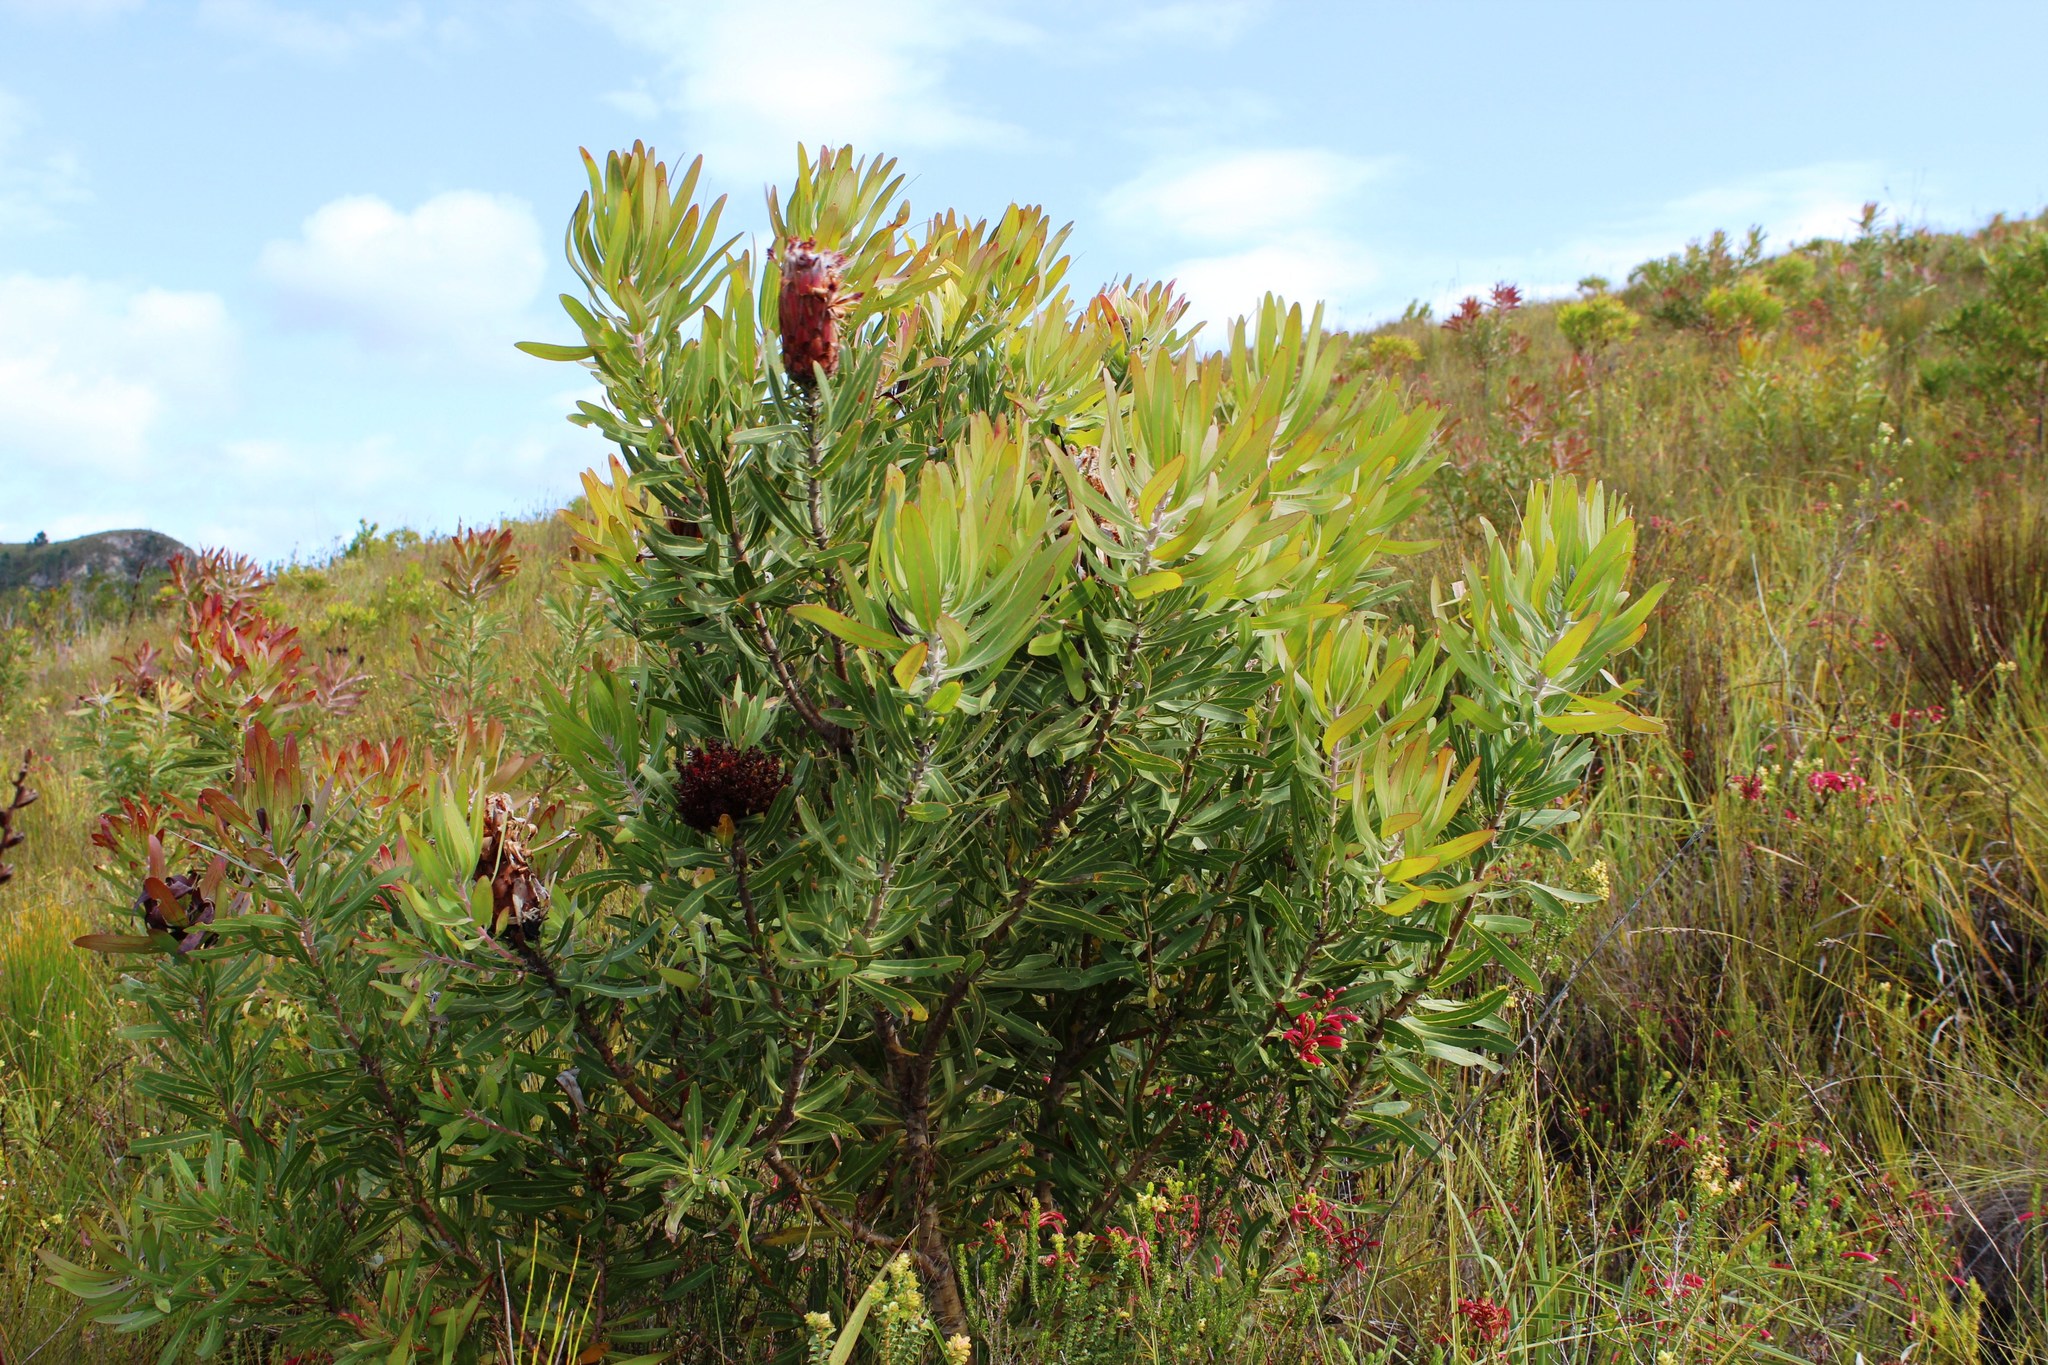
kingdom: Plantae
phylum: Tracheophyta
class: Magnoliopsida
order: Proteales
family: Proteaceae
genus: Protea
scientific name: Protea neriifolia
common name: Blue sugarbush
